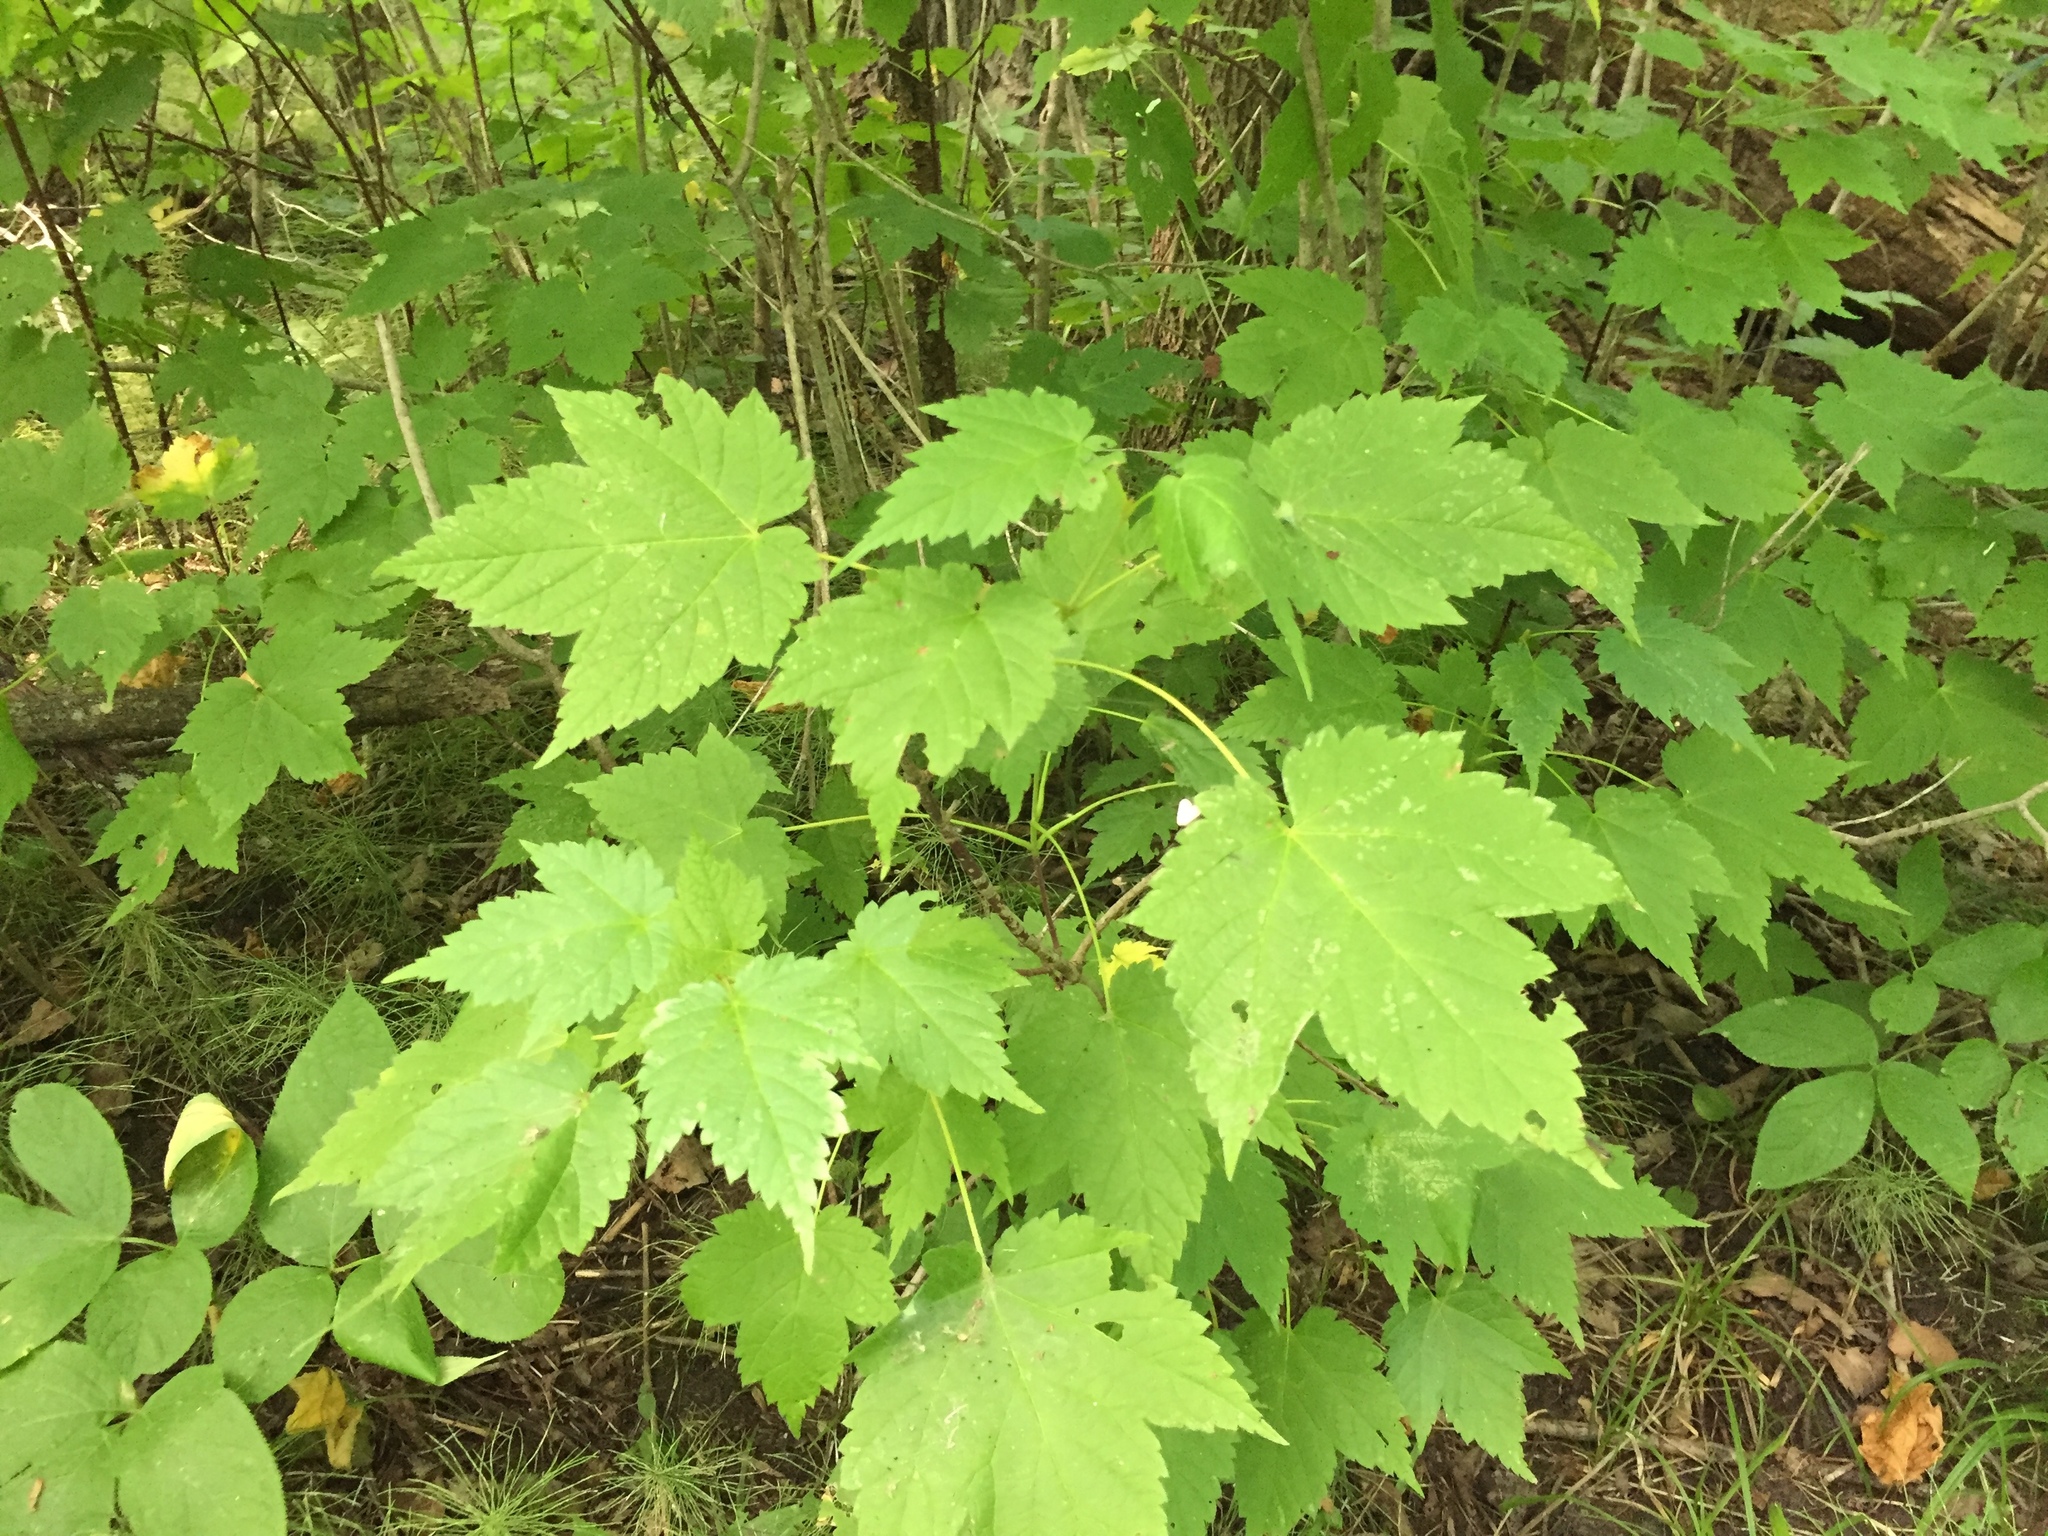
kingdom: Plantae
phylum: Tracheophyta
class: Magnoliopsida
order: Sapindales
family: Sapindaceae
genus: Acer
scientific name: Acer spicatum
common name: Mountain maple
